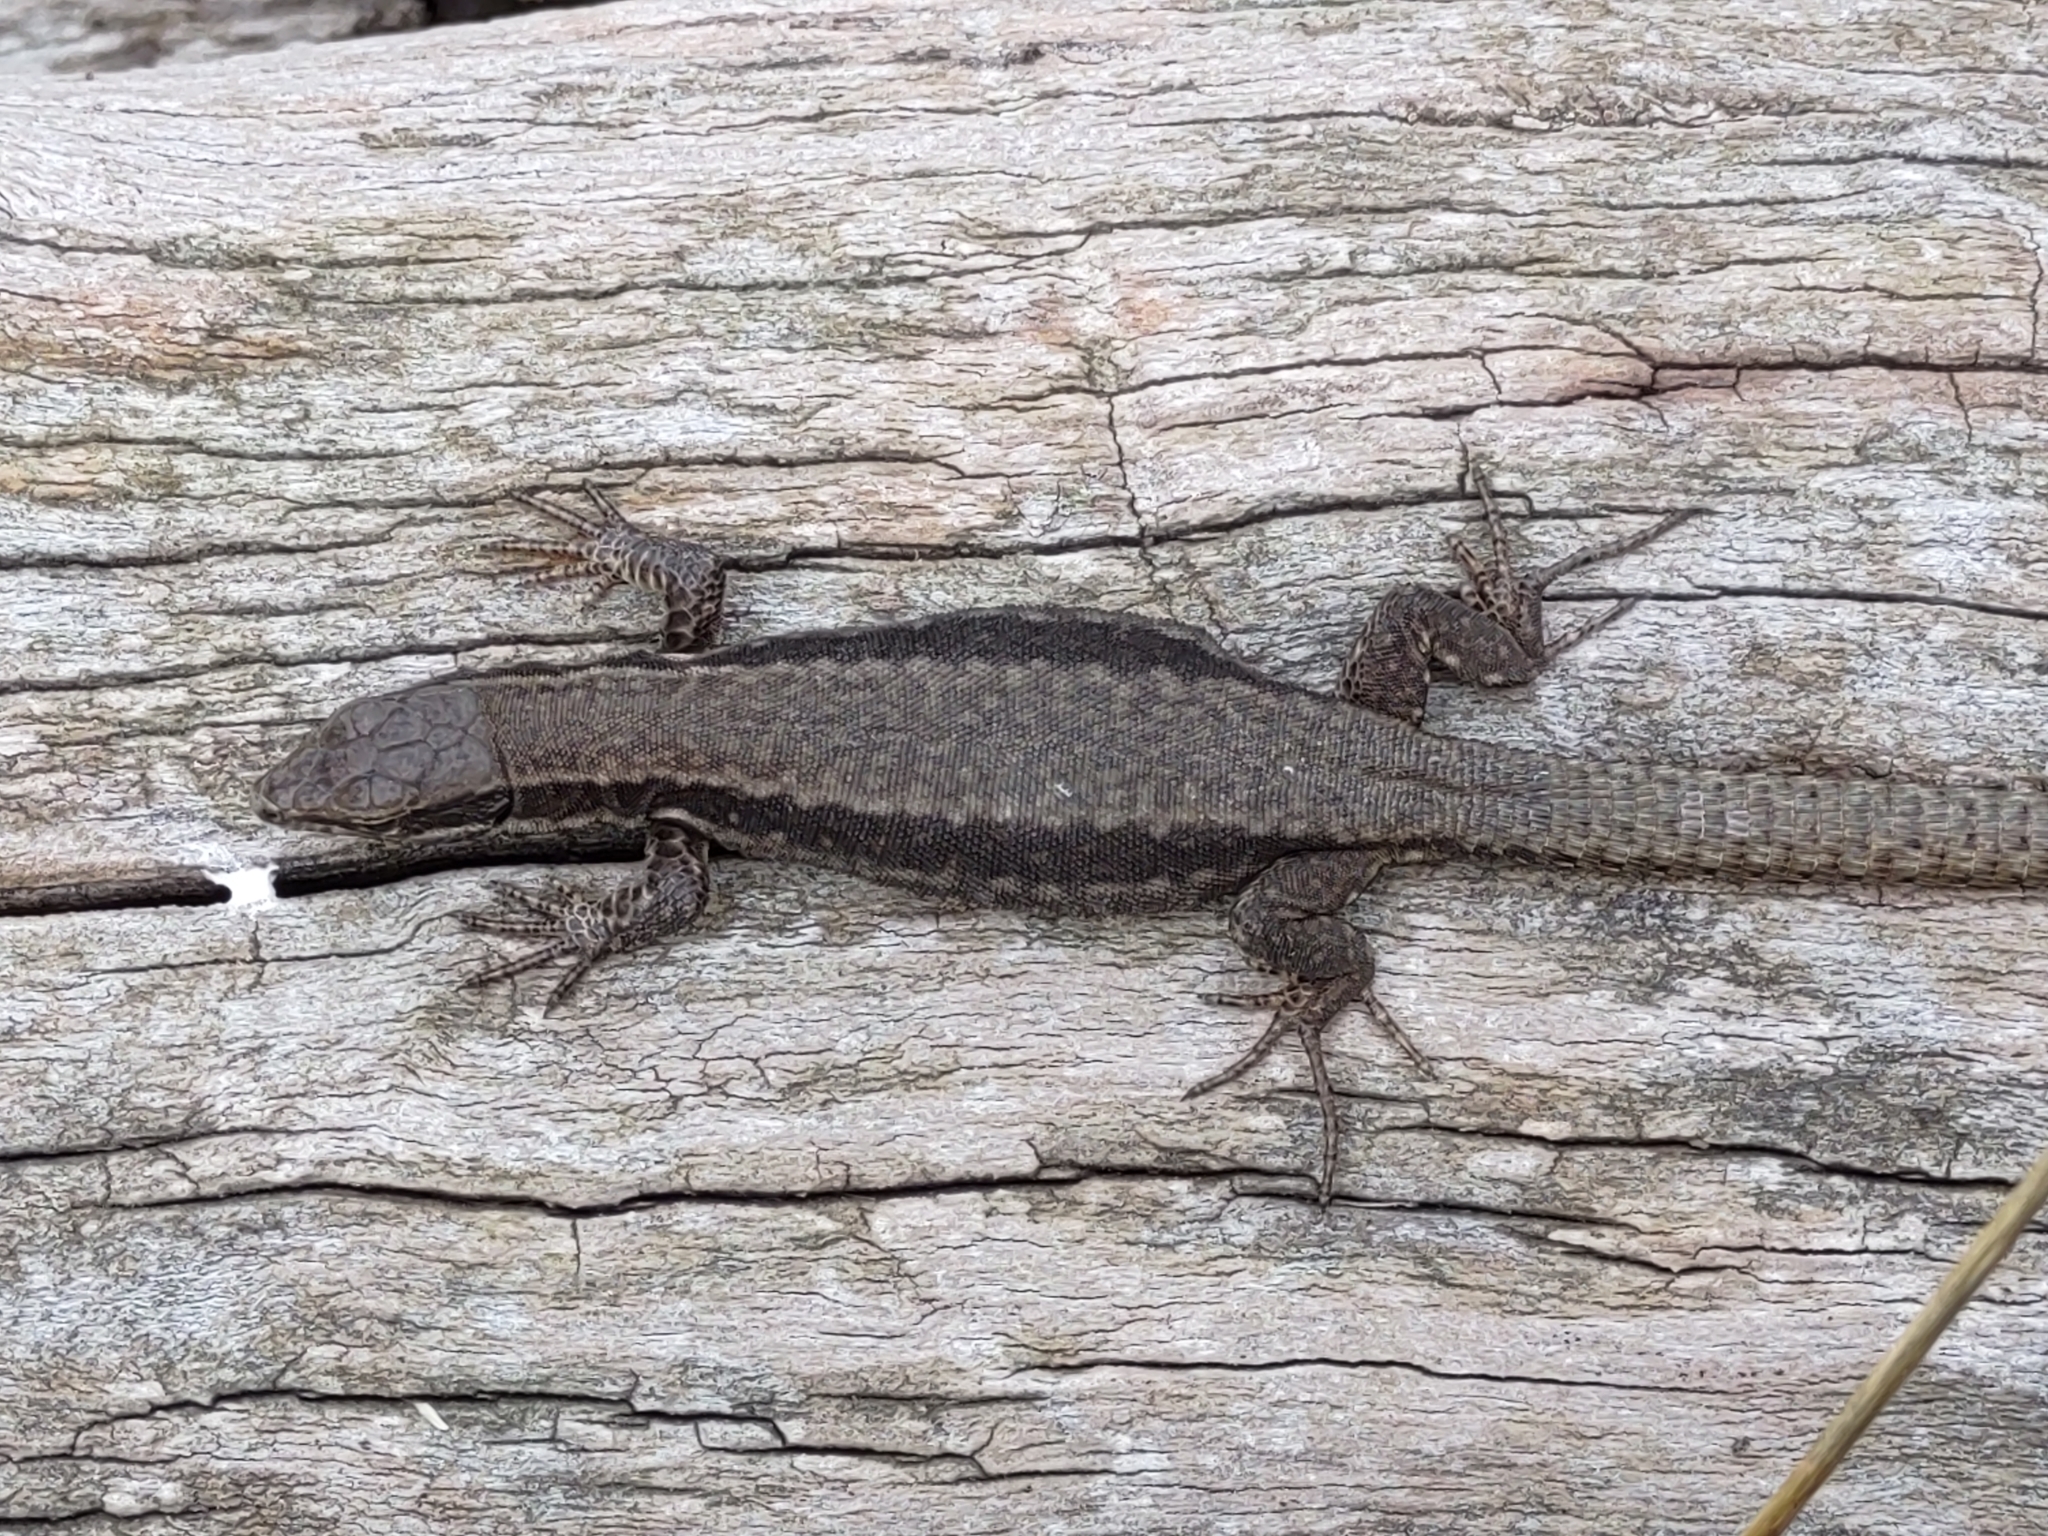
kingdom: Animalia
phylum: Chordata
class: Squamata
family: Lacertidae
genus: Podarcis
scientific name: Podarcis muralis
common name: Common wall lizard
